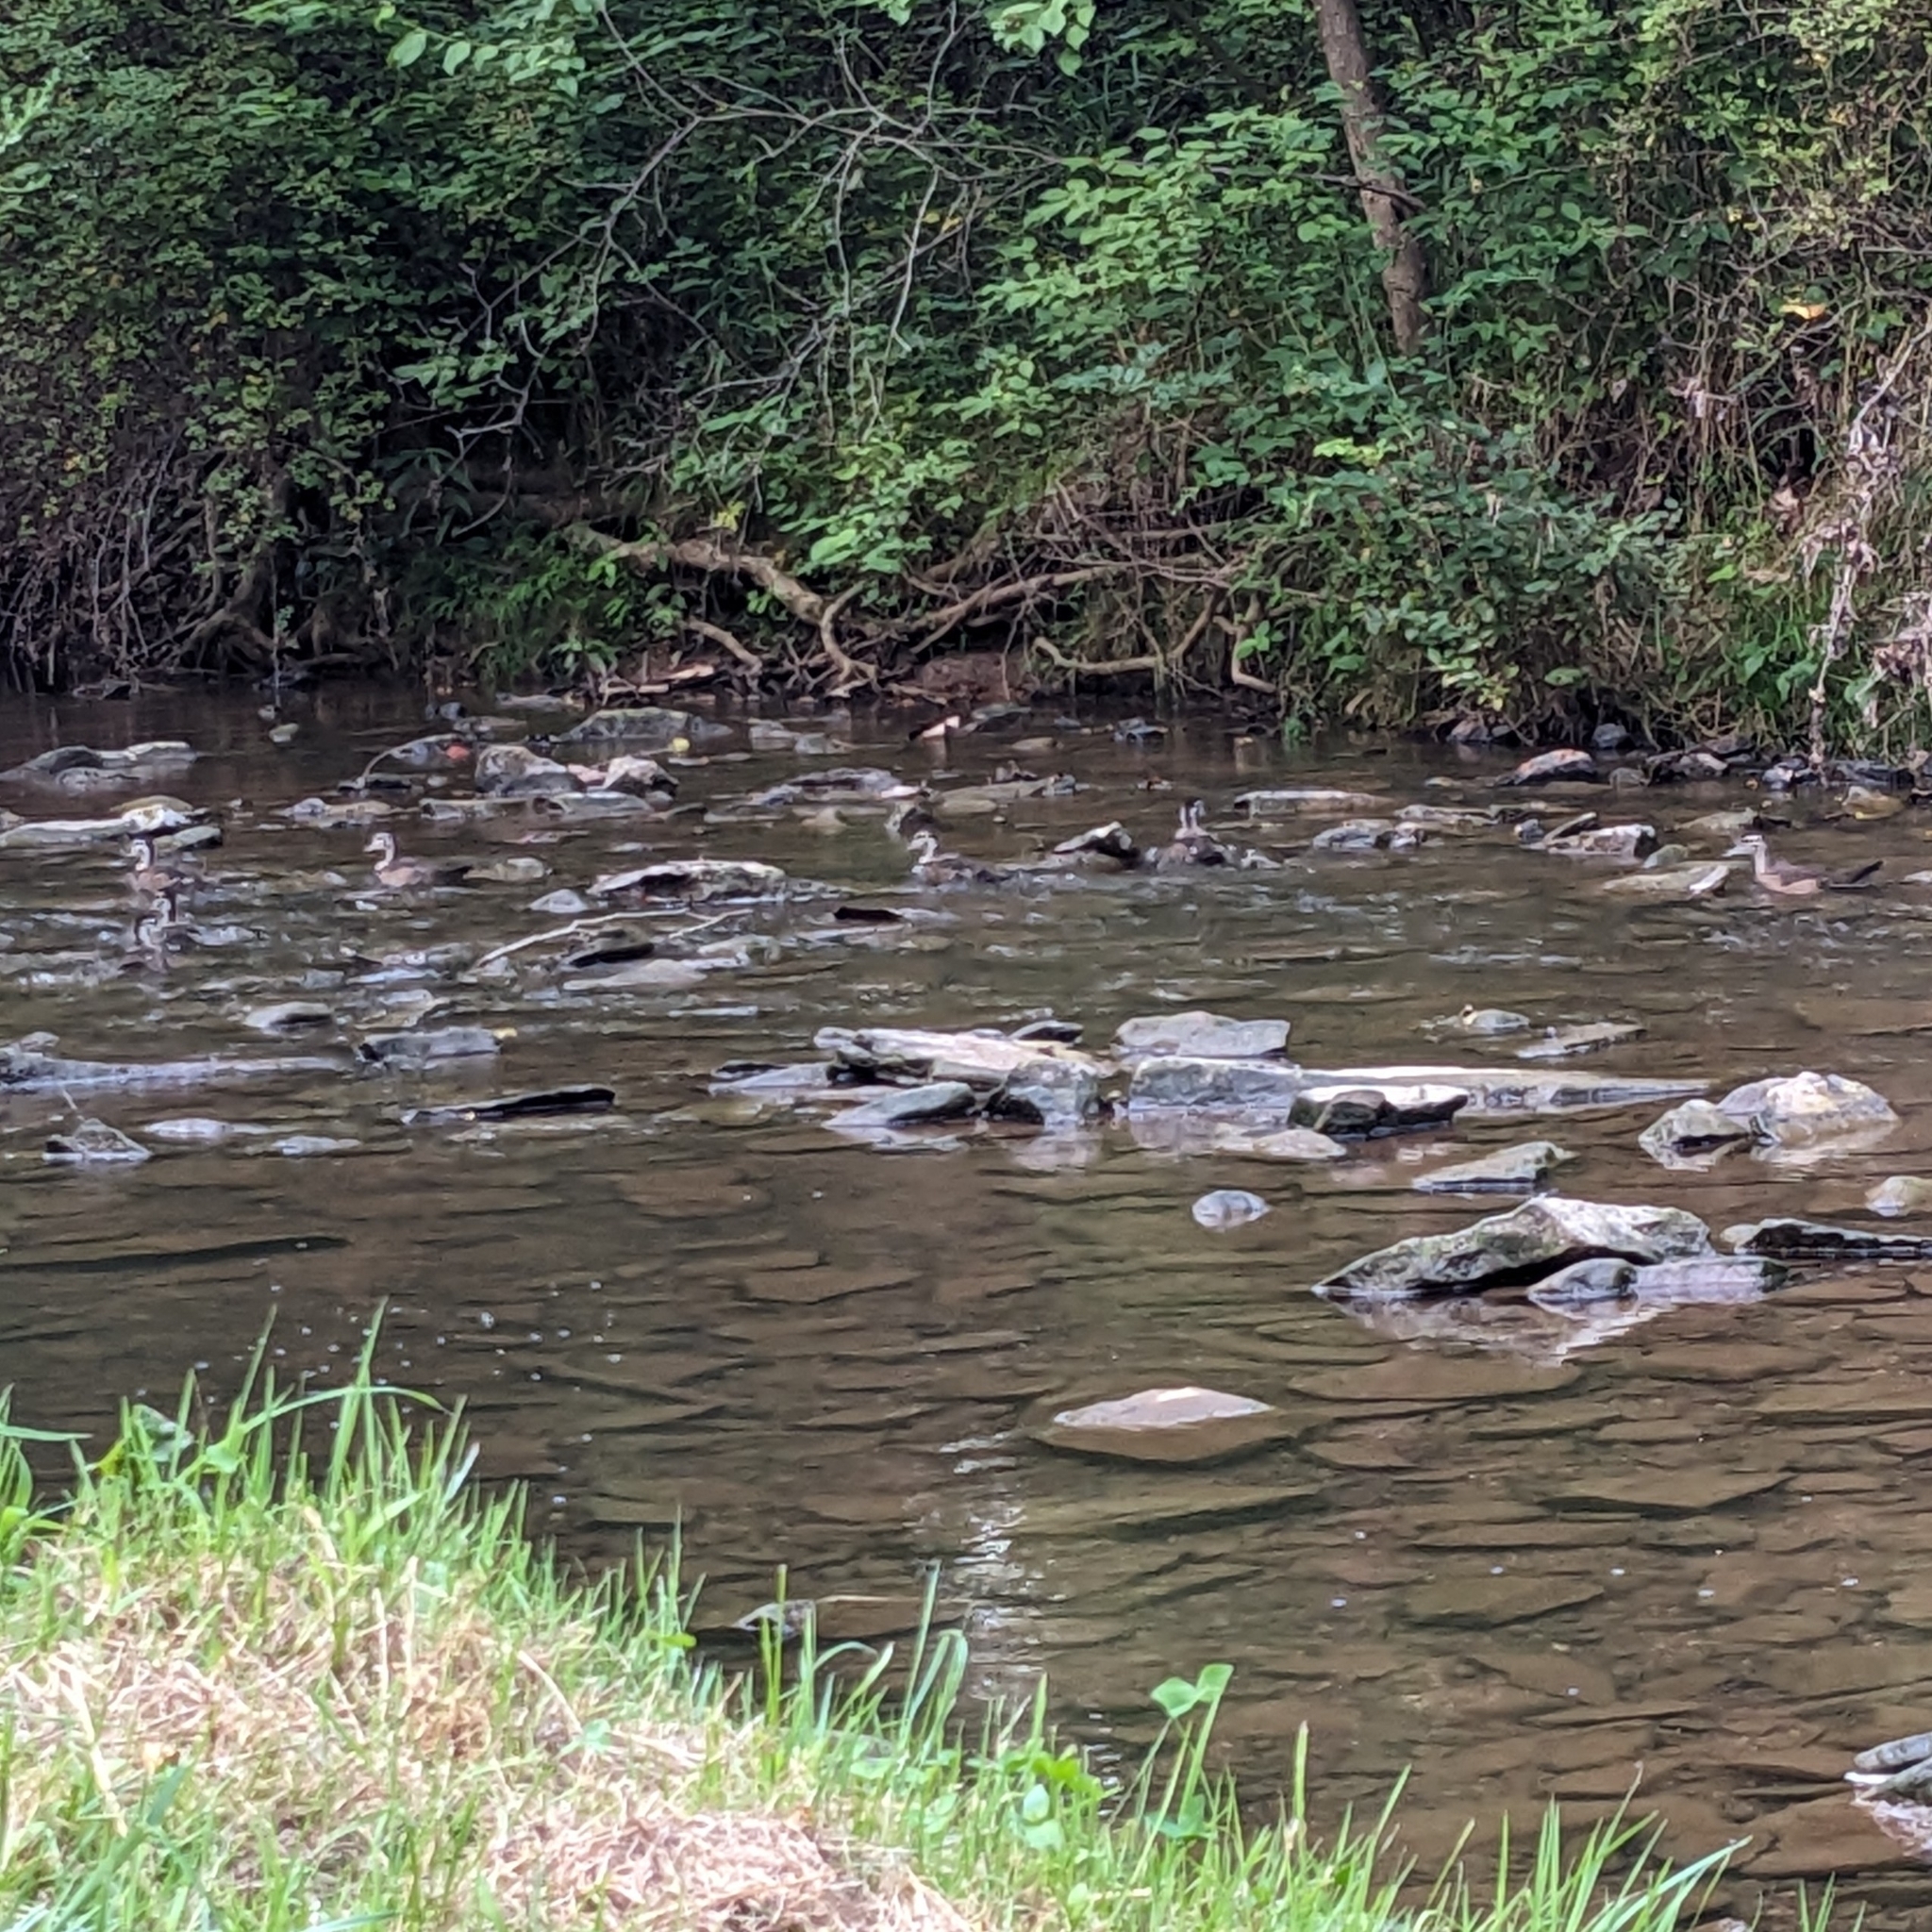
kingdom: Animalia
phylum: Chordata
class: Aves
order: Anseriformes
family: Anatidae
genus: Aix
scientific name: Aix sponsa
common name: Wood duck
